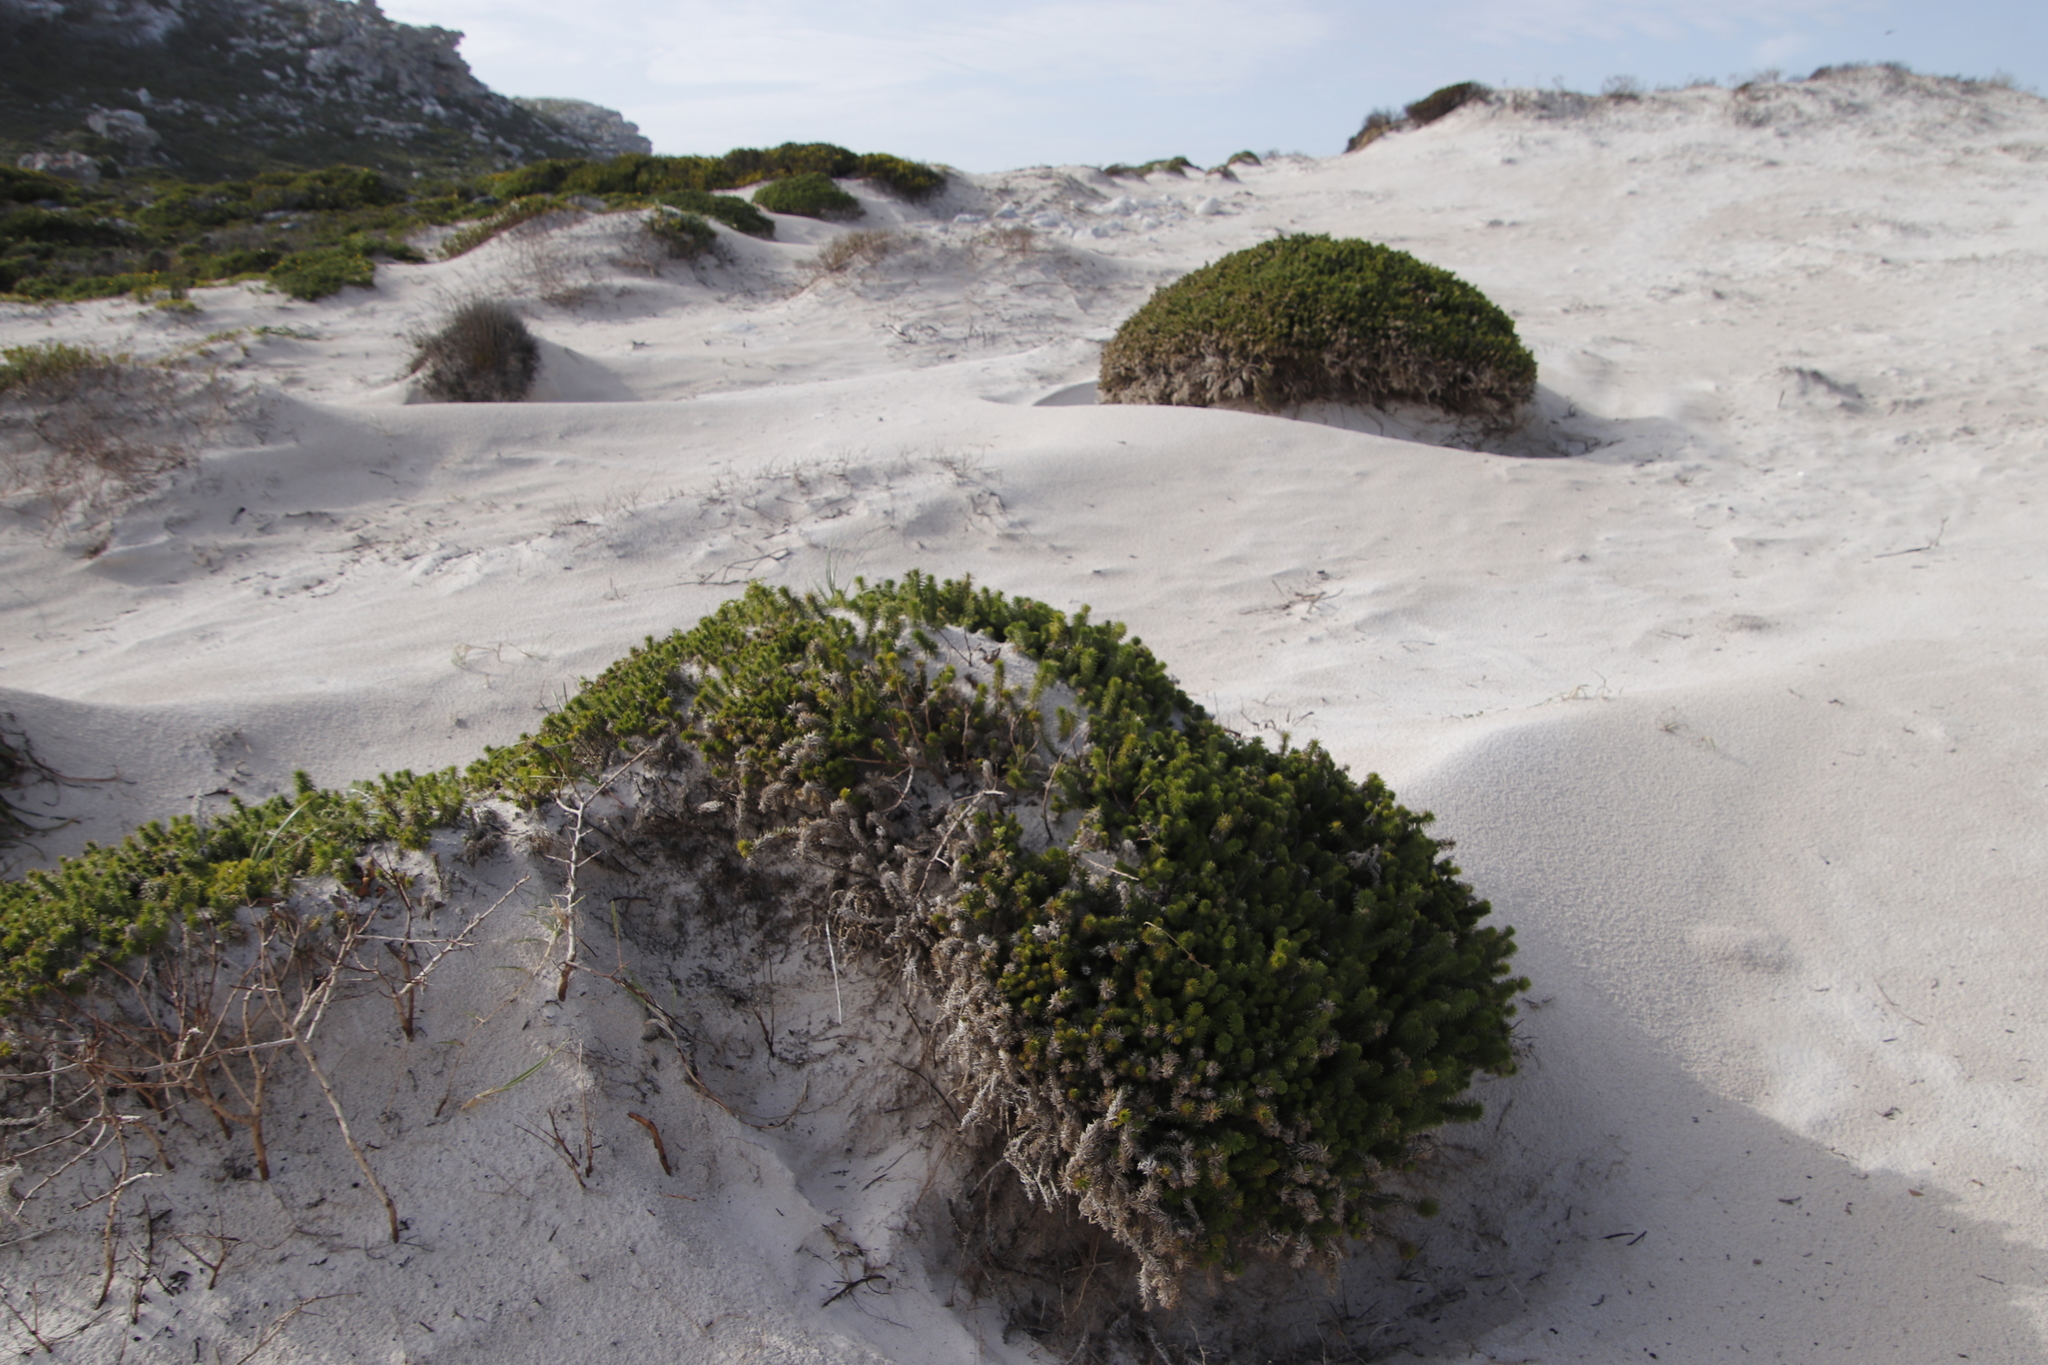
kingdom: Plantae
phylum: Tracheophyta
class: Magnoliopsida
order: Asterales
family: Asteraceae
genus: Cullumia
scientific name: Cullumia squarrosa
